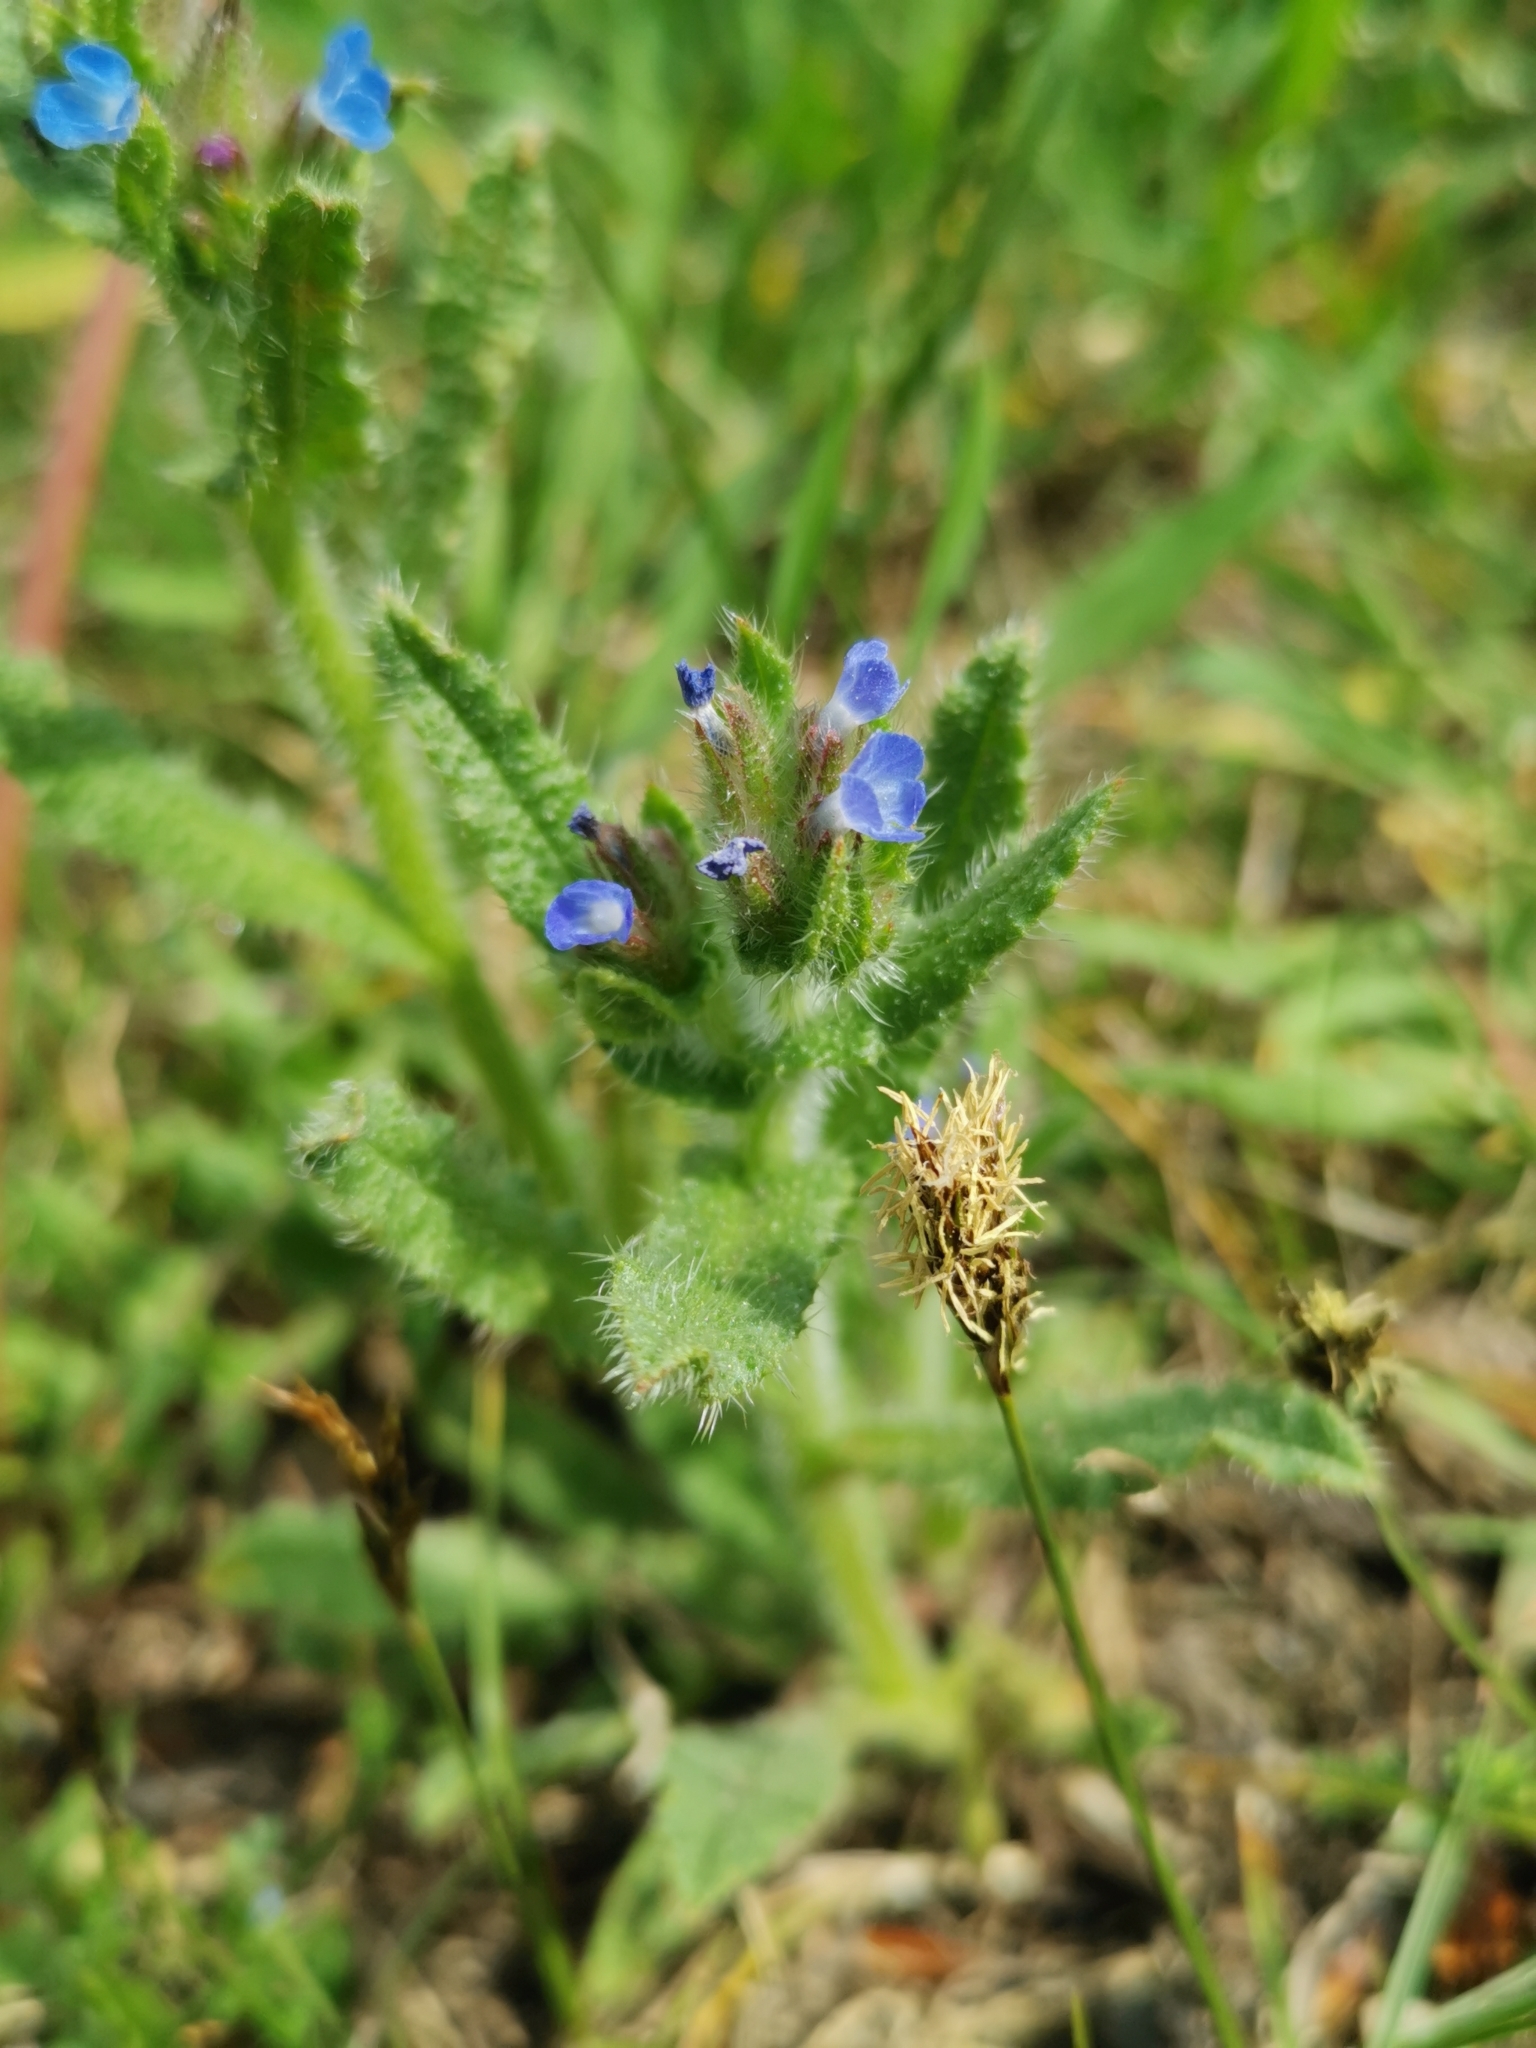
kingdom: Plantae
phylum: Tracheophyta
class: Magnoliopsida
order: Boraginales
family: Boraginaceae
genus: Lycopsis
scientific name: Lycopsis arvensis
